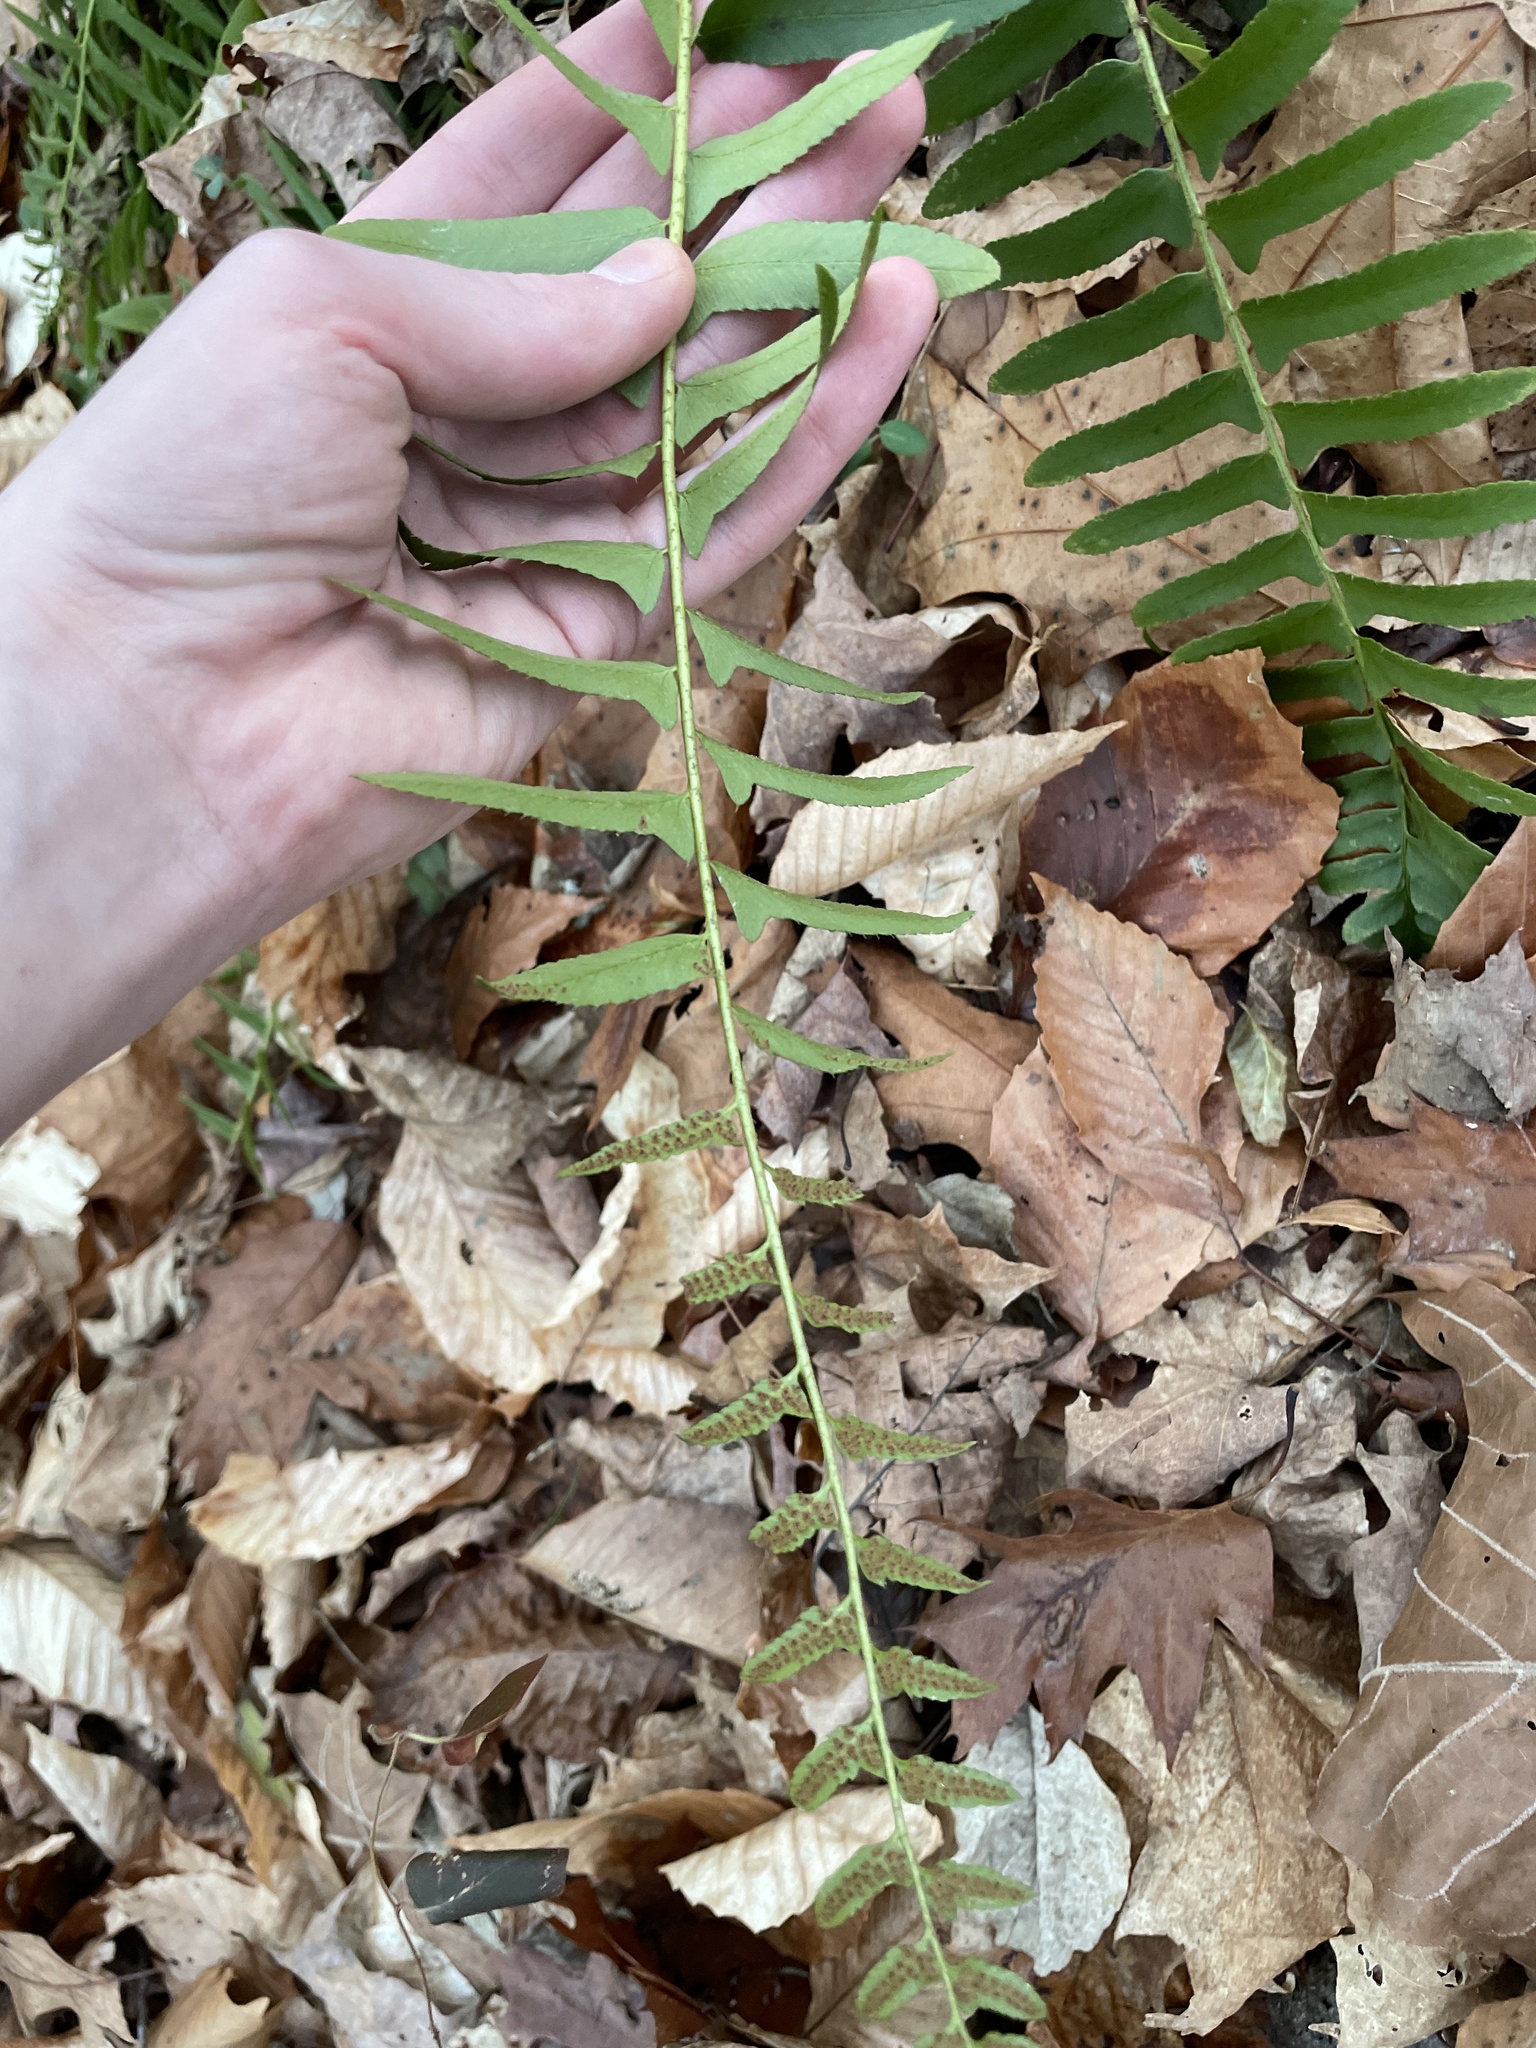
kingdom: Plantae
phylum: Tracheophyta
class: Polypodiopsida
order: Polypodiales
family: Dryopteridaceae
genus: Polystichum
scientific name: Polystichum acrostichoides
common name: Christmas fern
